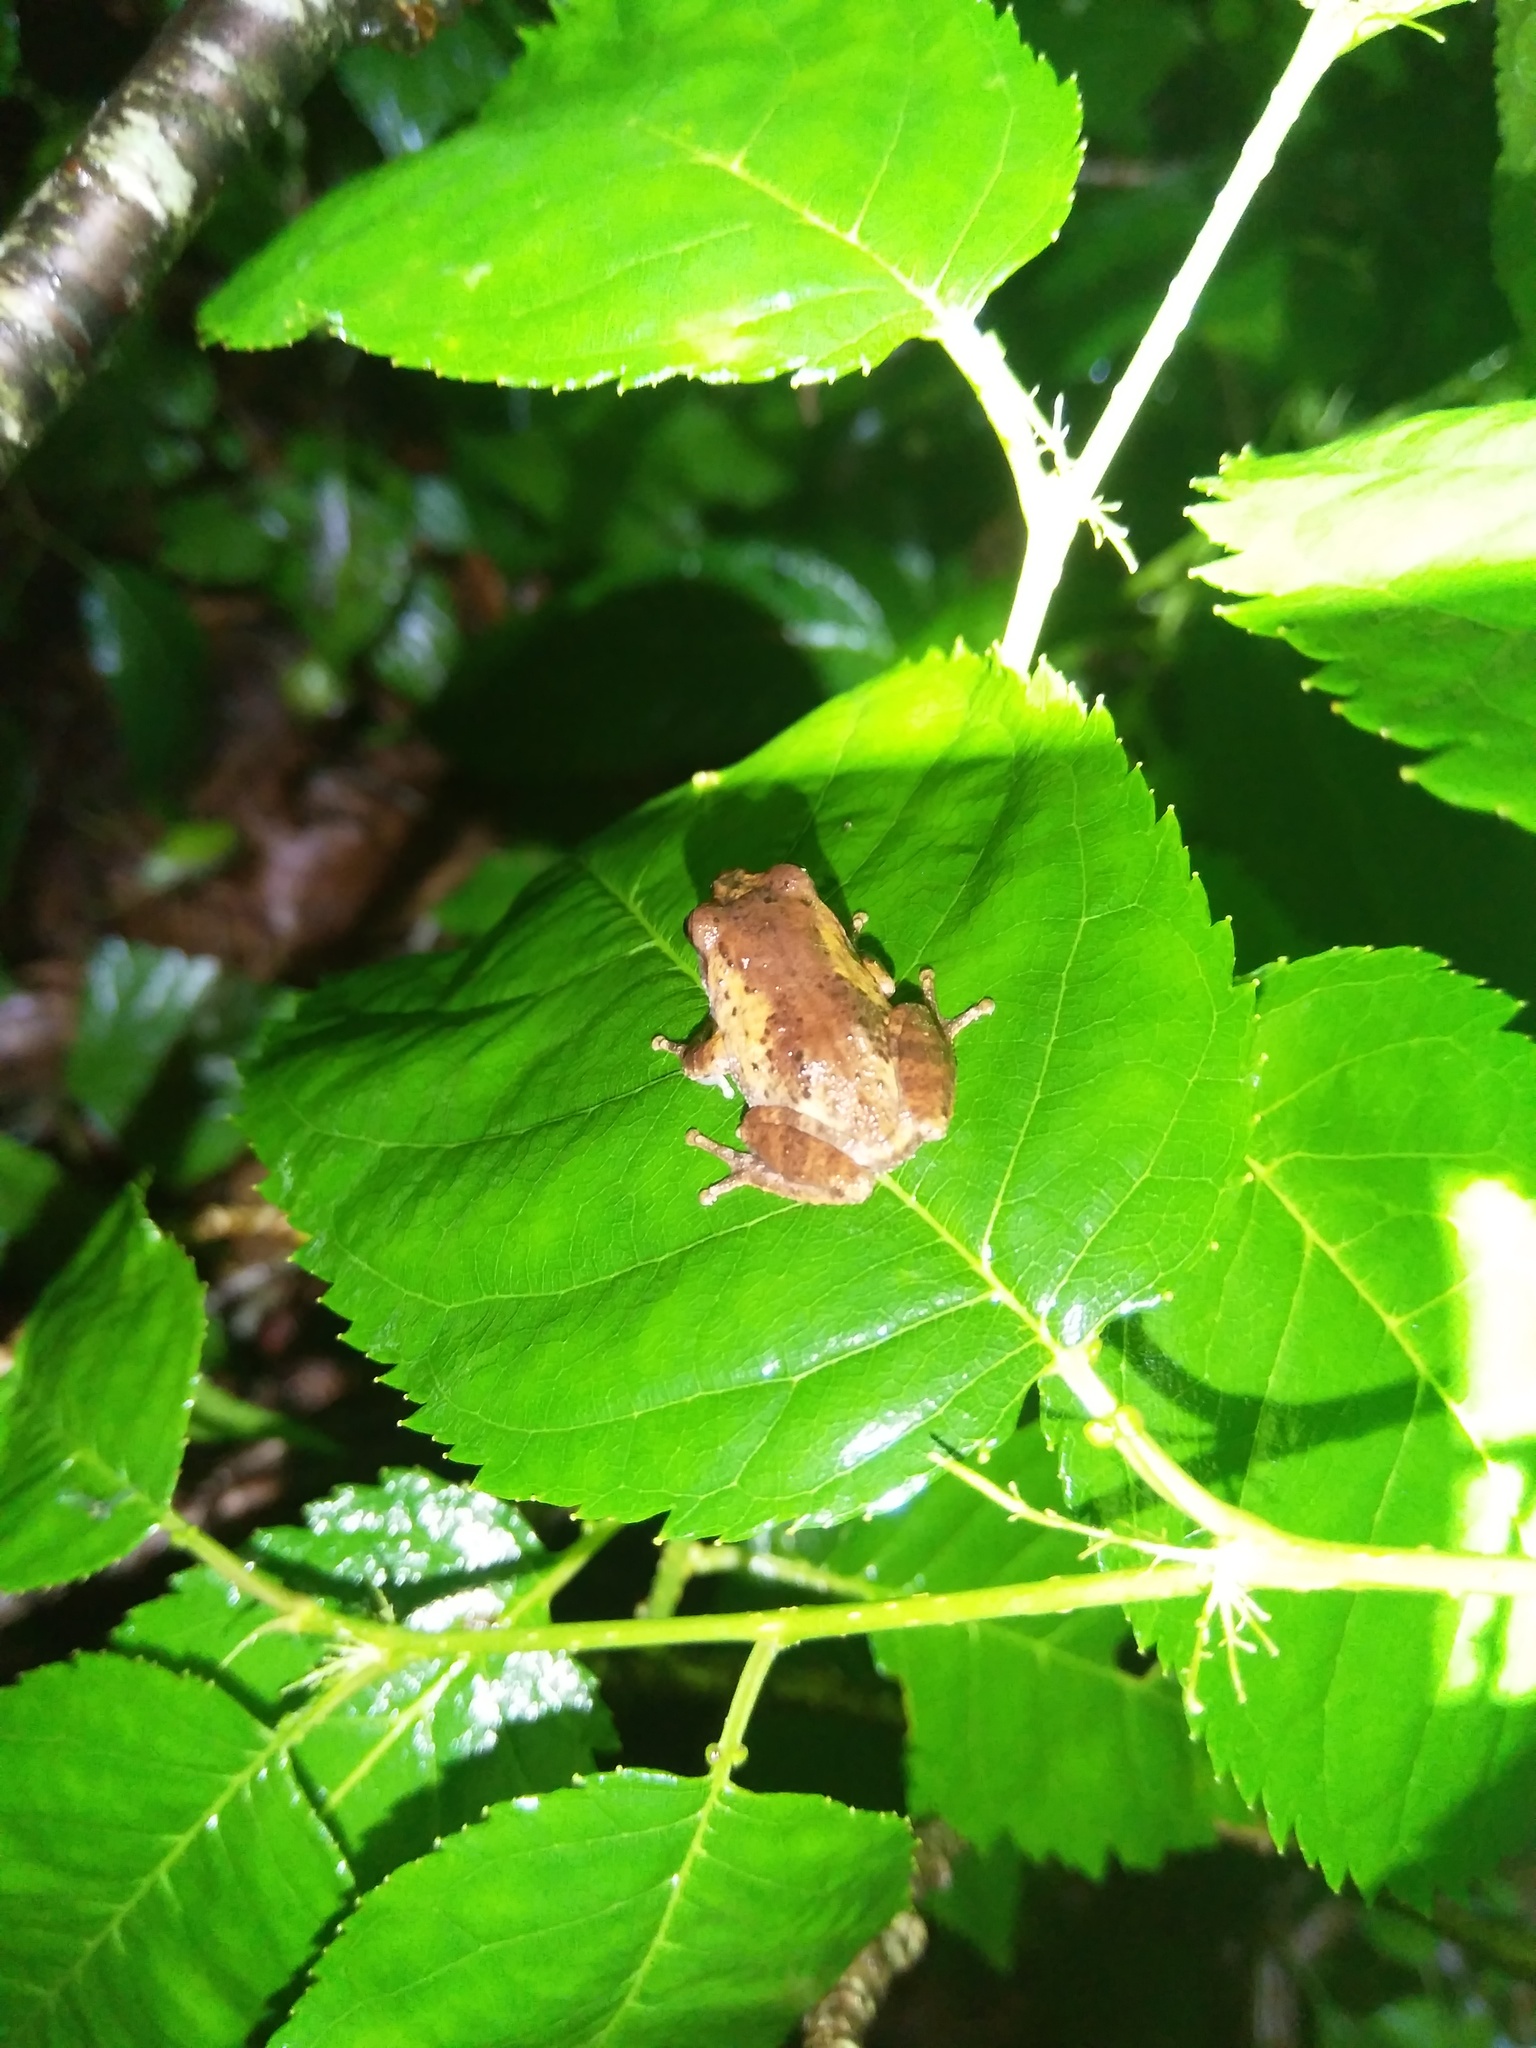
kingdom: Animalia
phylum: Chordata
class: Amphibia
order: Anura
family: Rhacophoridae
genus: Raorchestes
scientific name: Raorchestes dubois
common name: Koadaikanal bush frog
